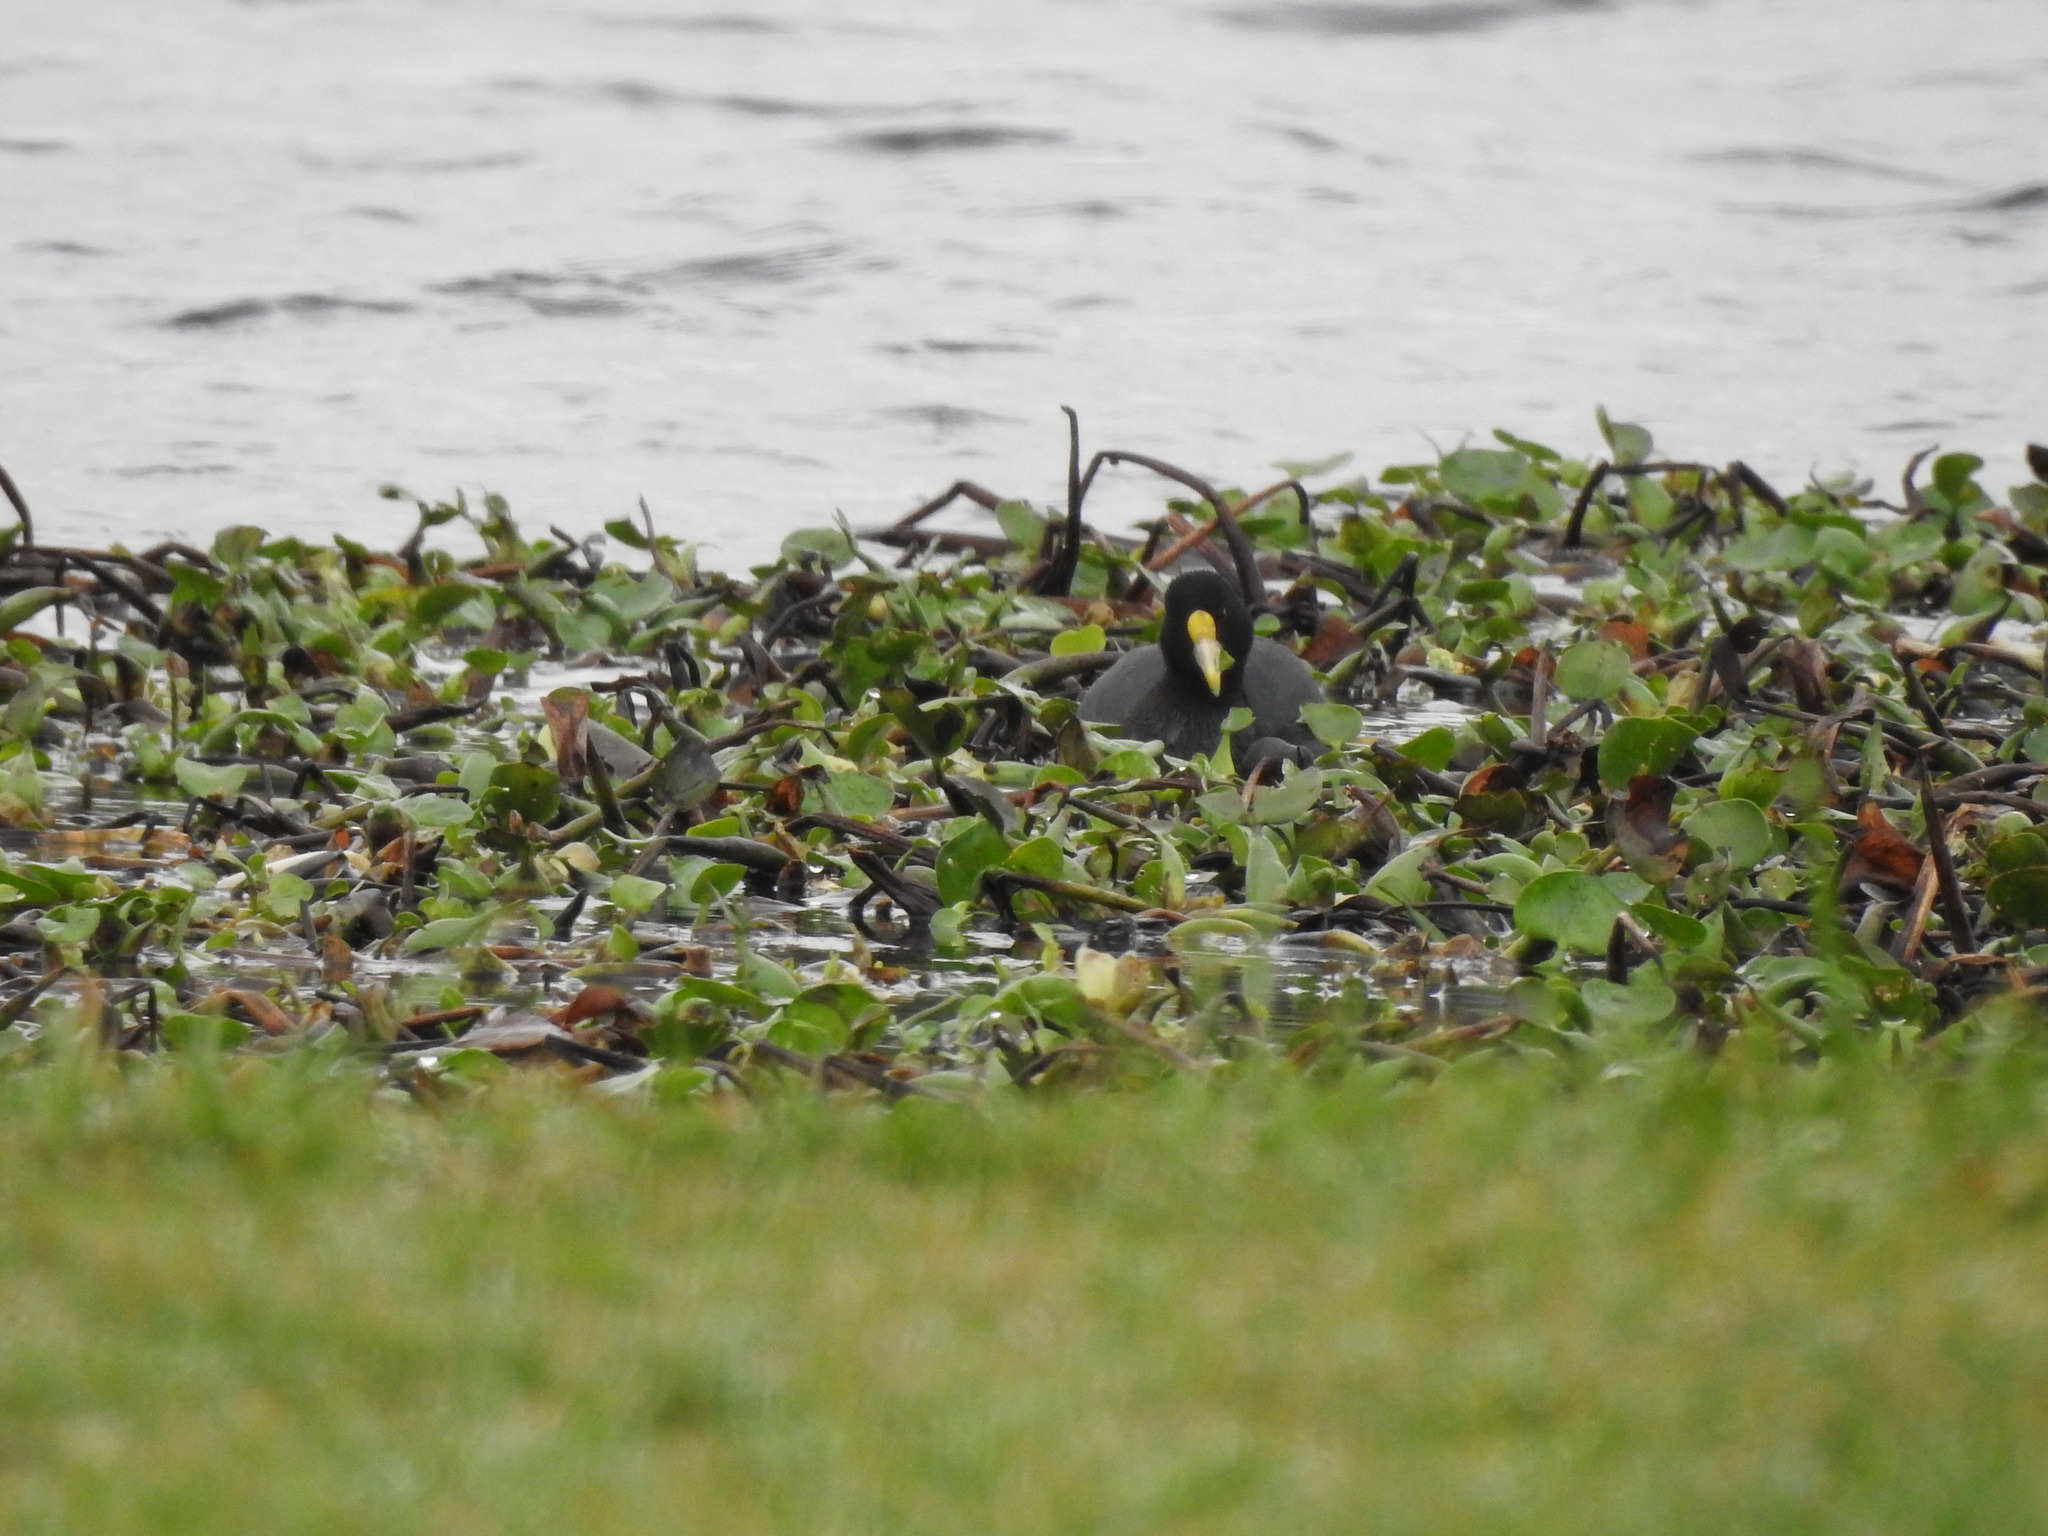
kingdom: Animalia
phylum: Chordata
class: Aves
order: Gruiformes
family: Rallidae
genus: Fulica
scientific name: Fulica leucoptera
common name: White-winged coot
